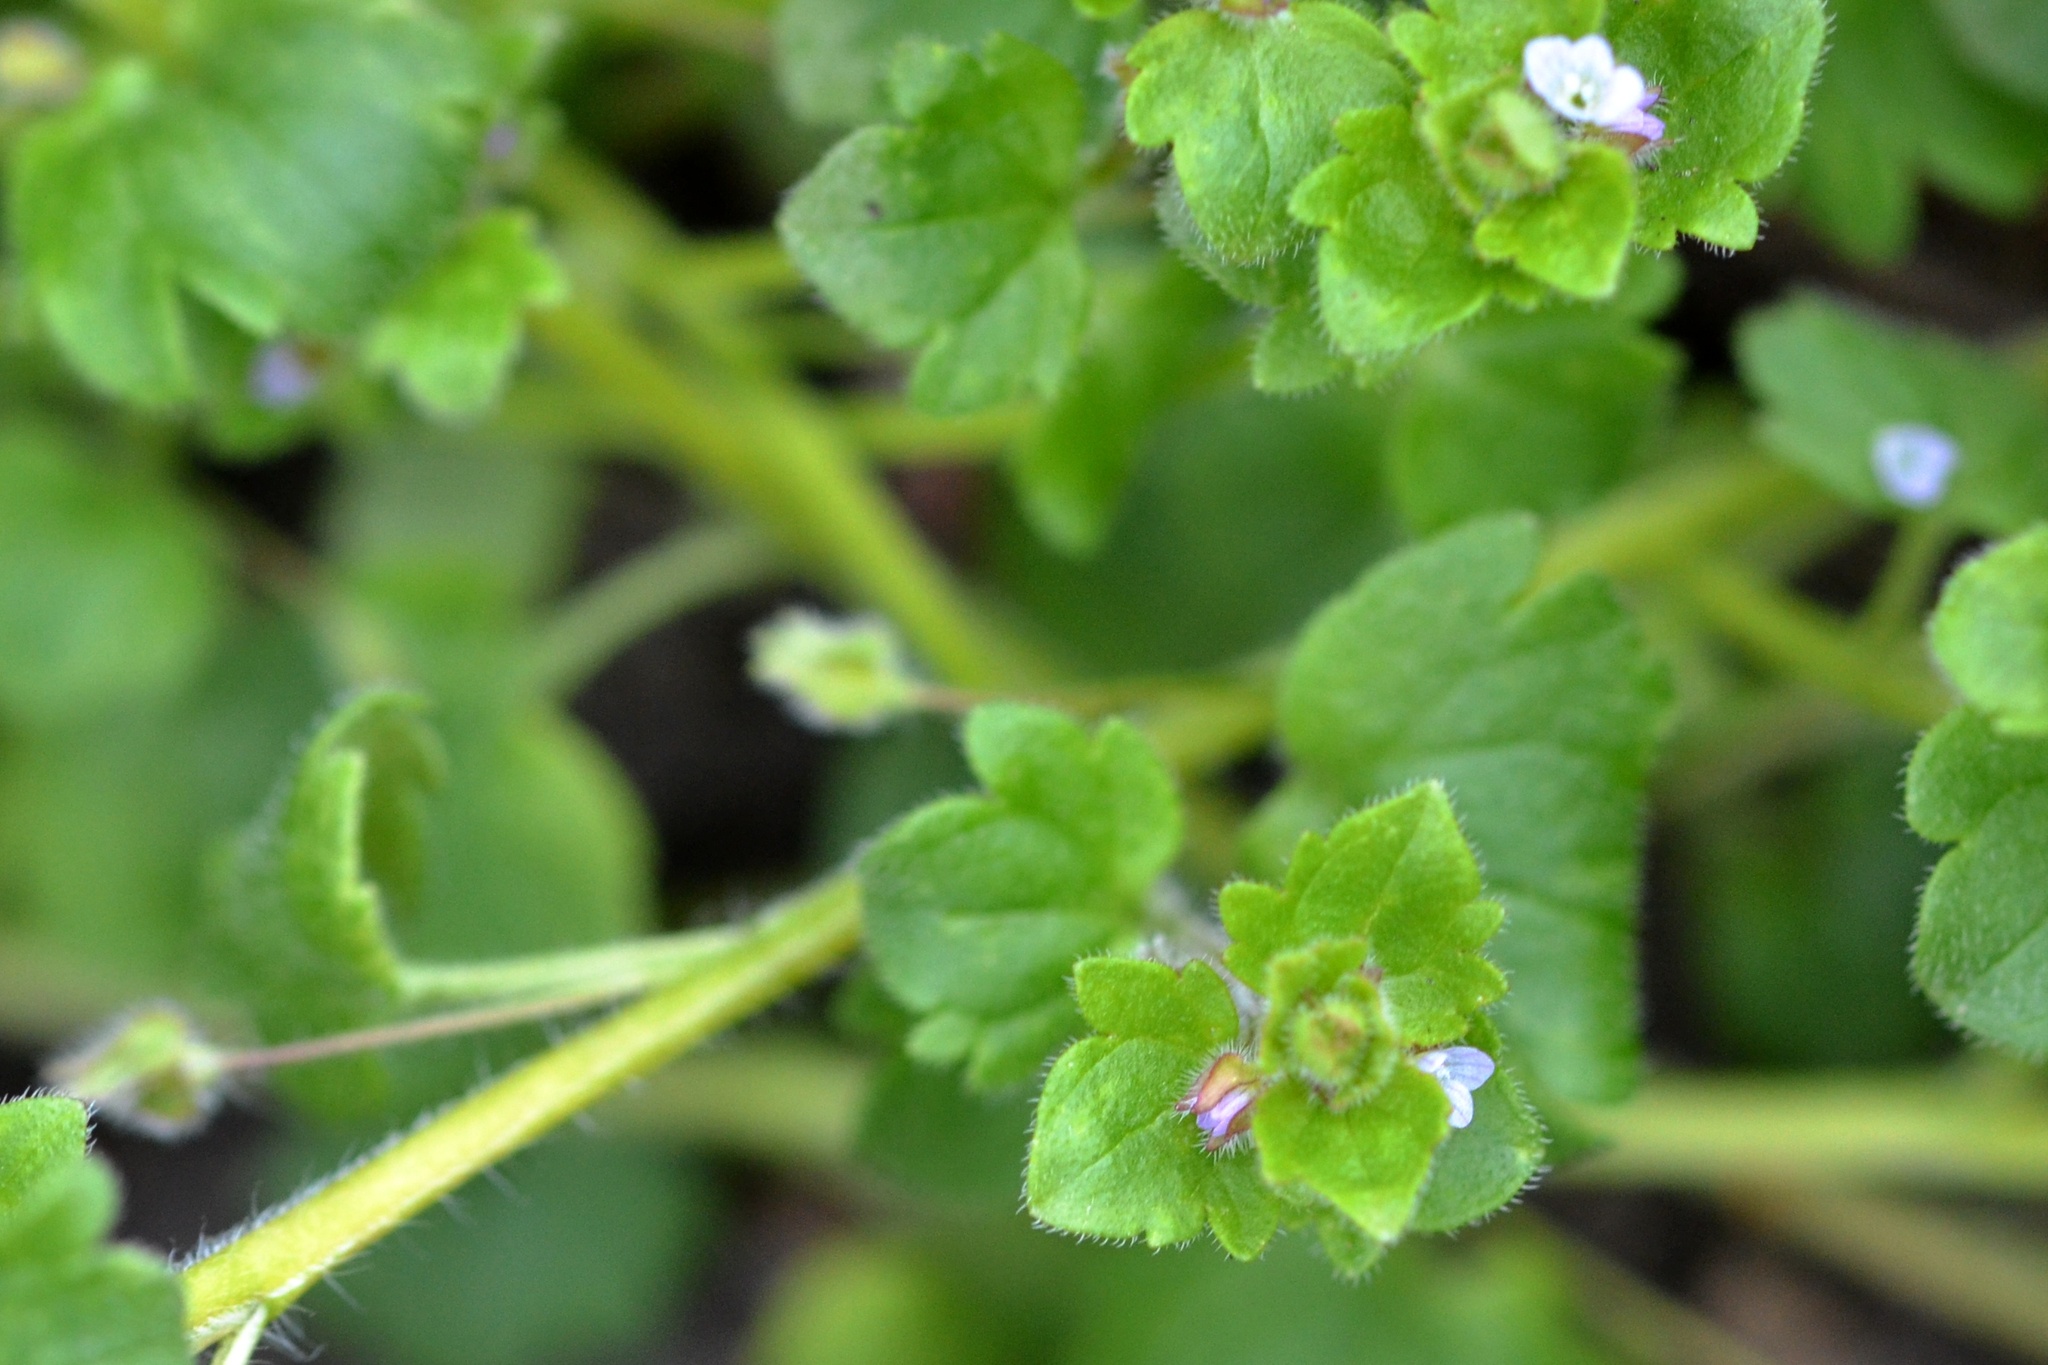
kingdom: Plantae
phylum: Tracheophyta
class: Magnoliopsida
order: Lamiales
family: Plantaginaceae
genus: Veronica
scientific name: Veronica sublobata
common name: False ivy-leaved speedwell
